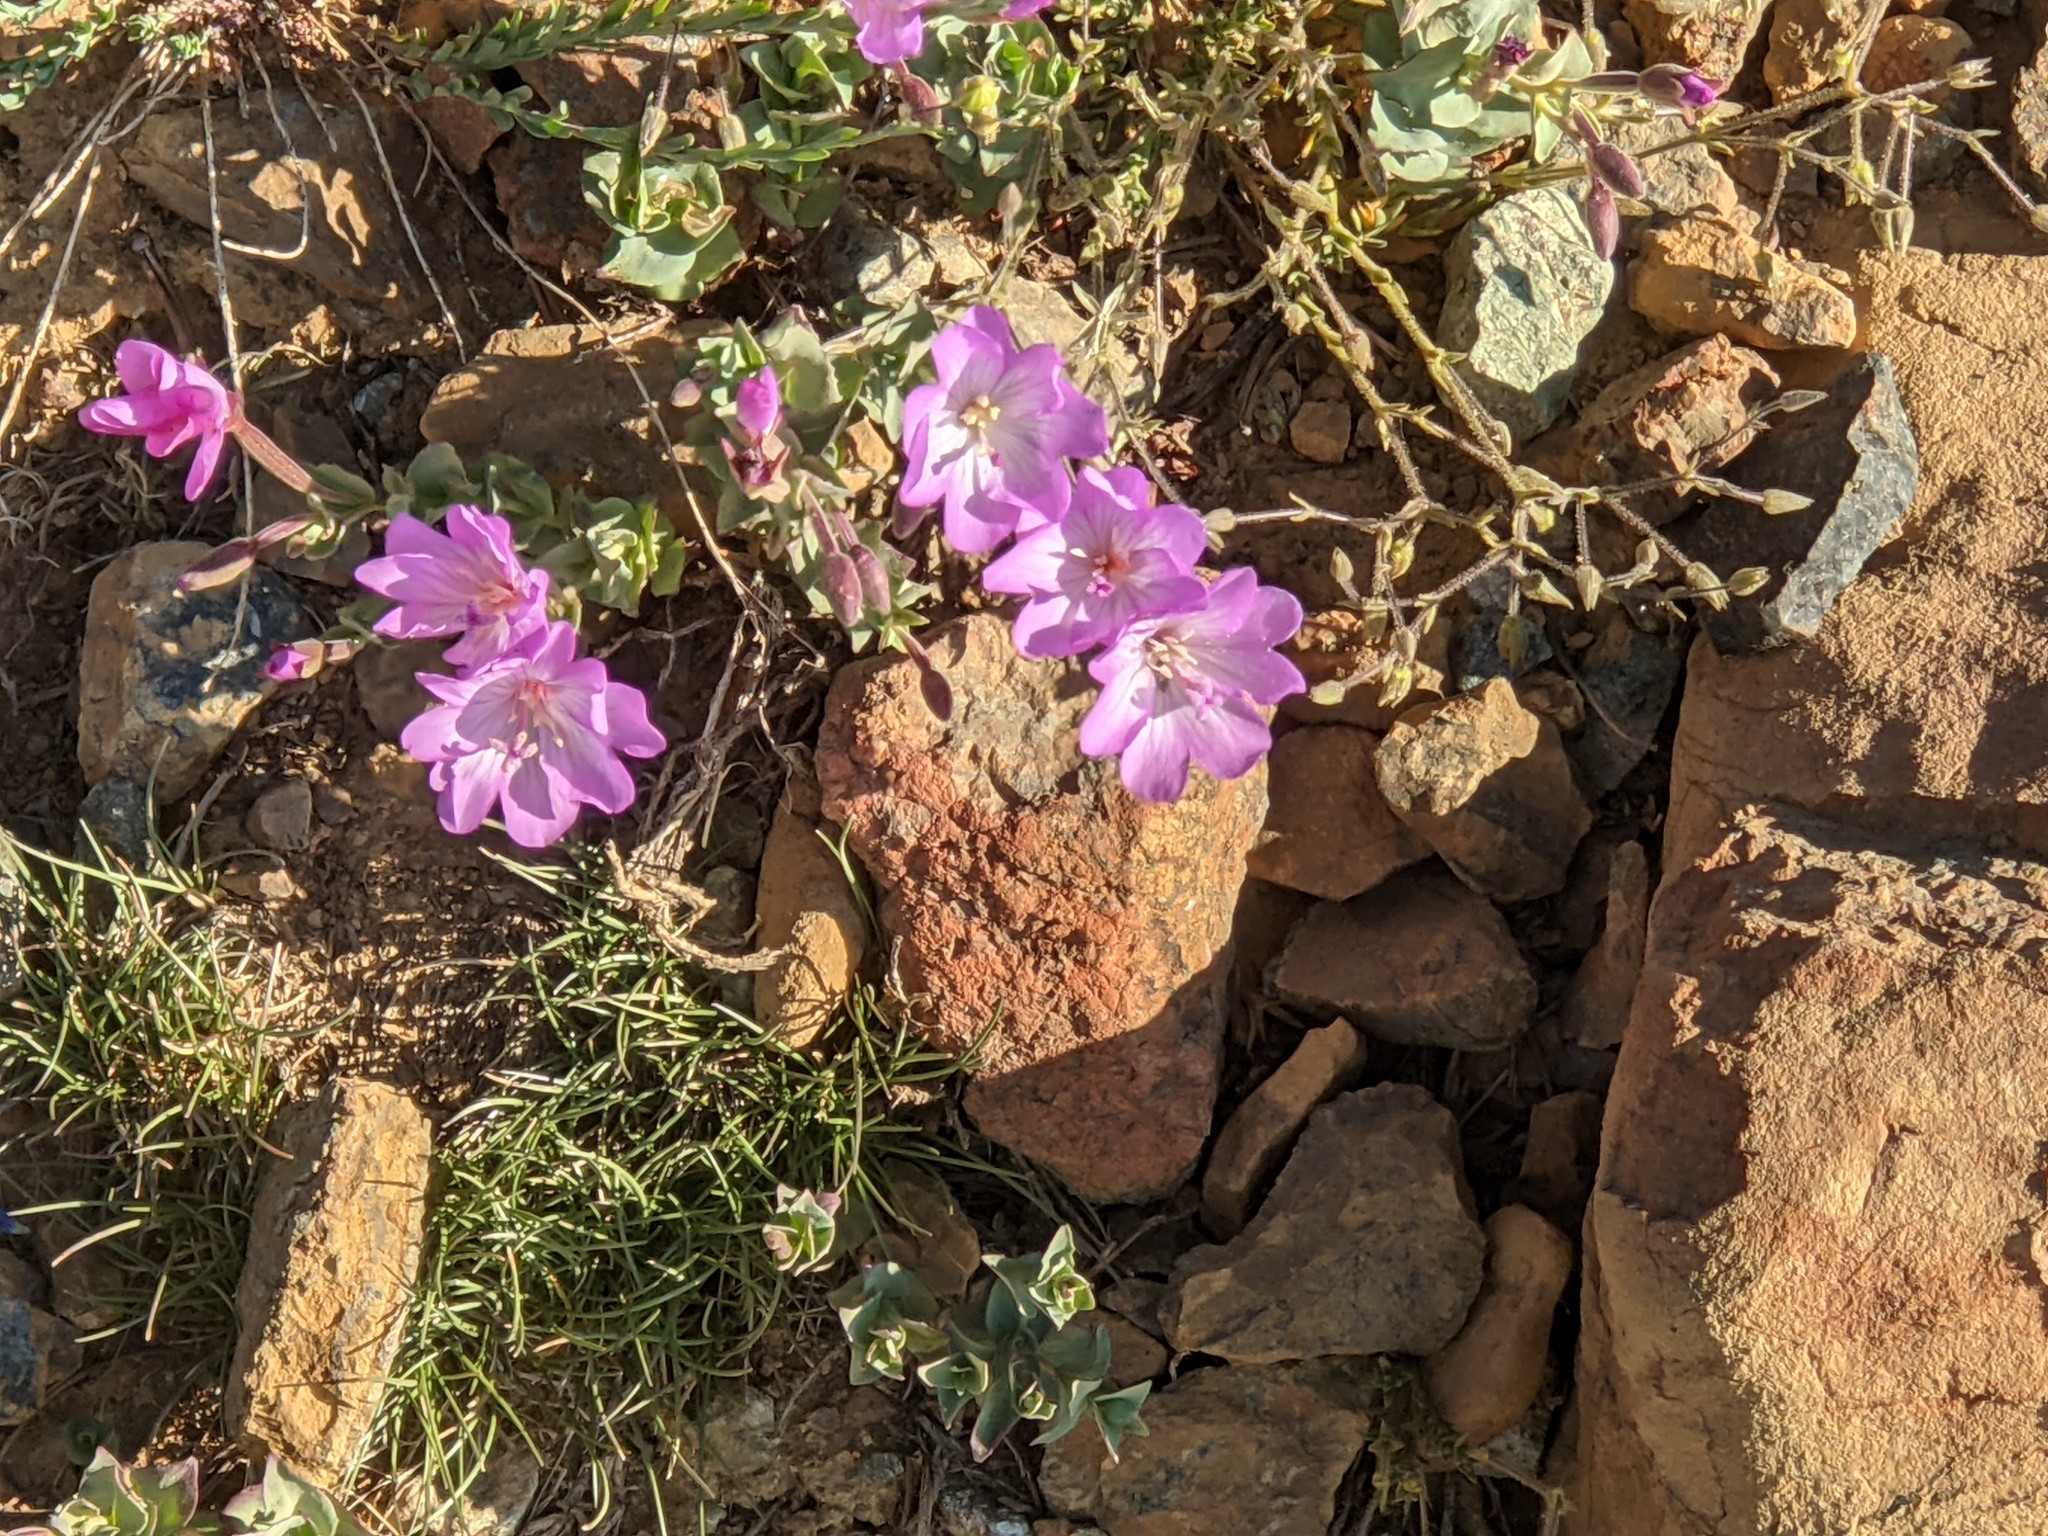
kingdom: Plantae
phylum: Tracheophyta
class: Magnoliopsida
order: Myrtales
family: Onagraceae
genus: Epilobium
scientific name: Epilobium siskiyouense
